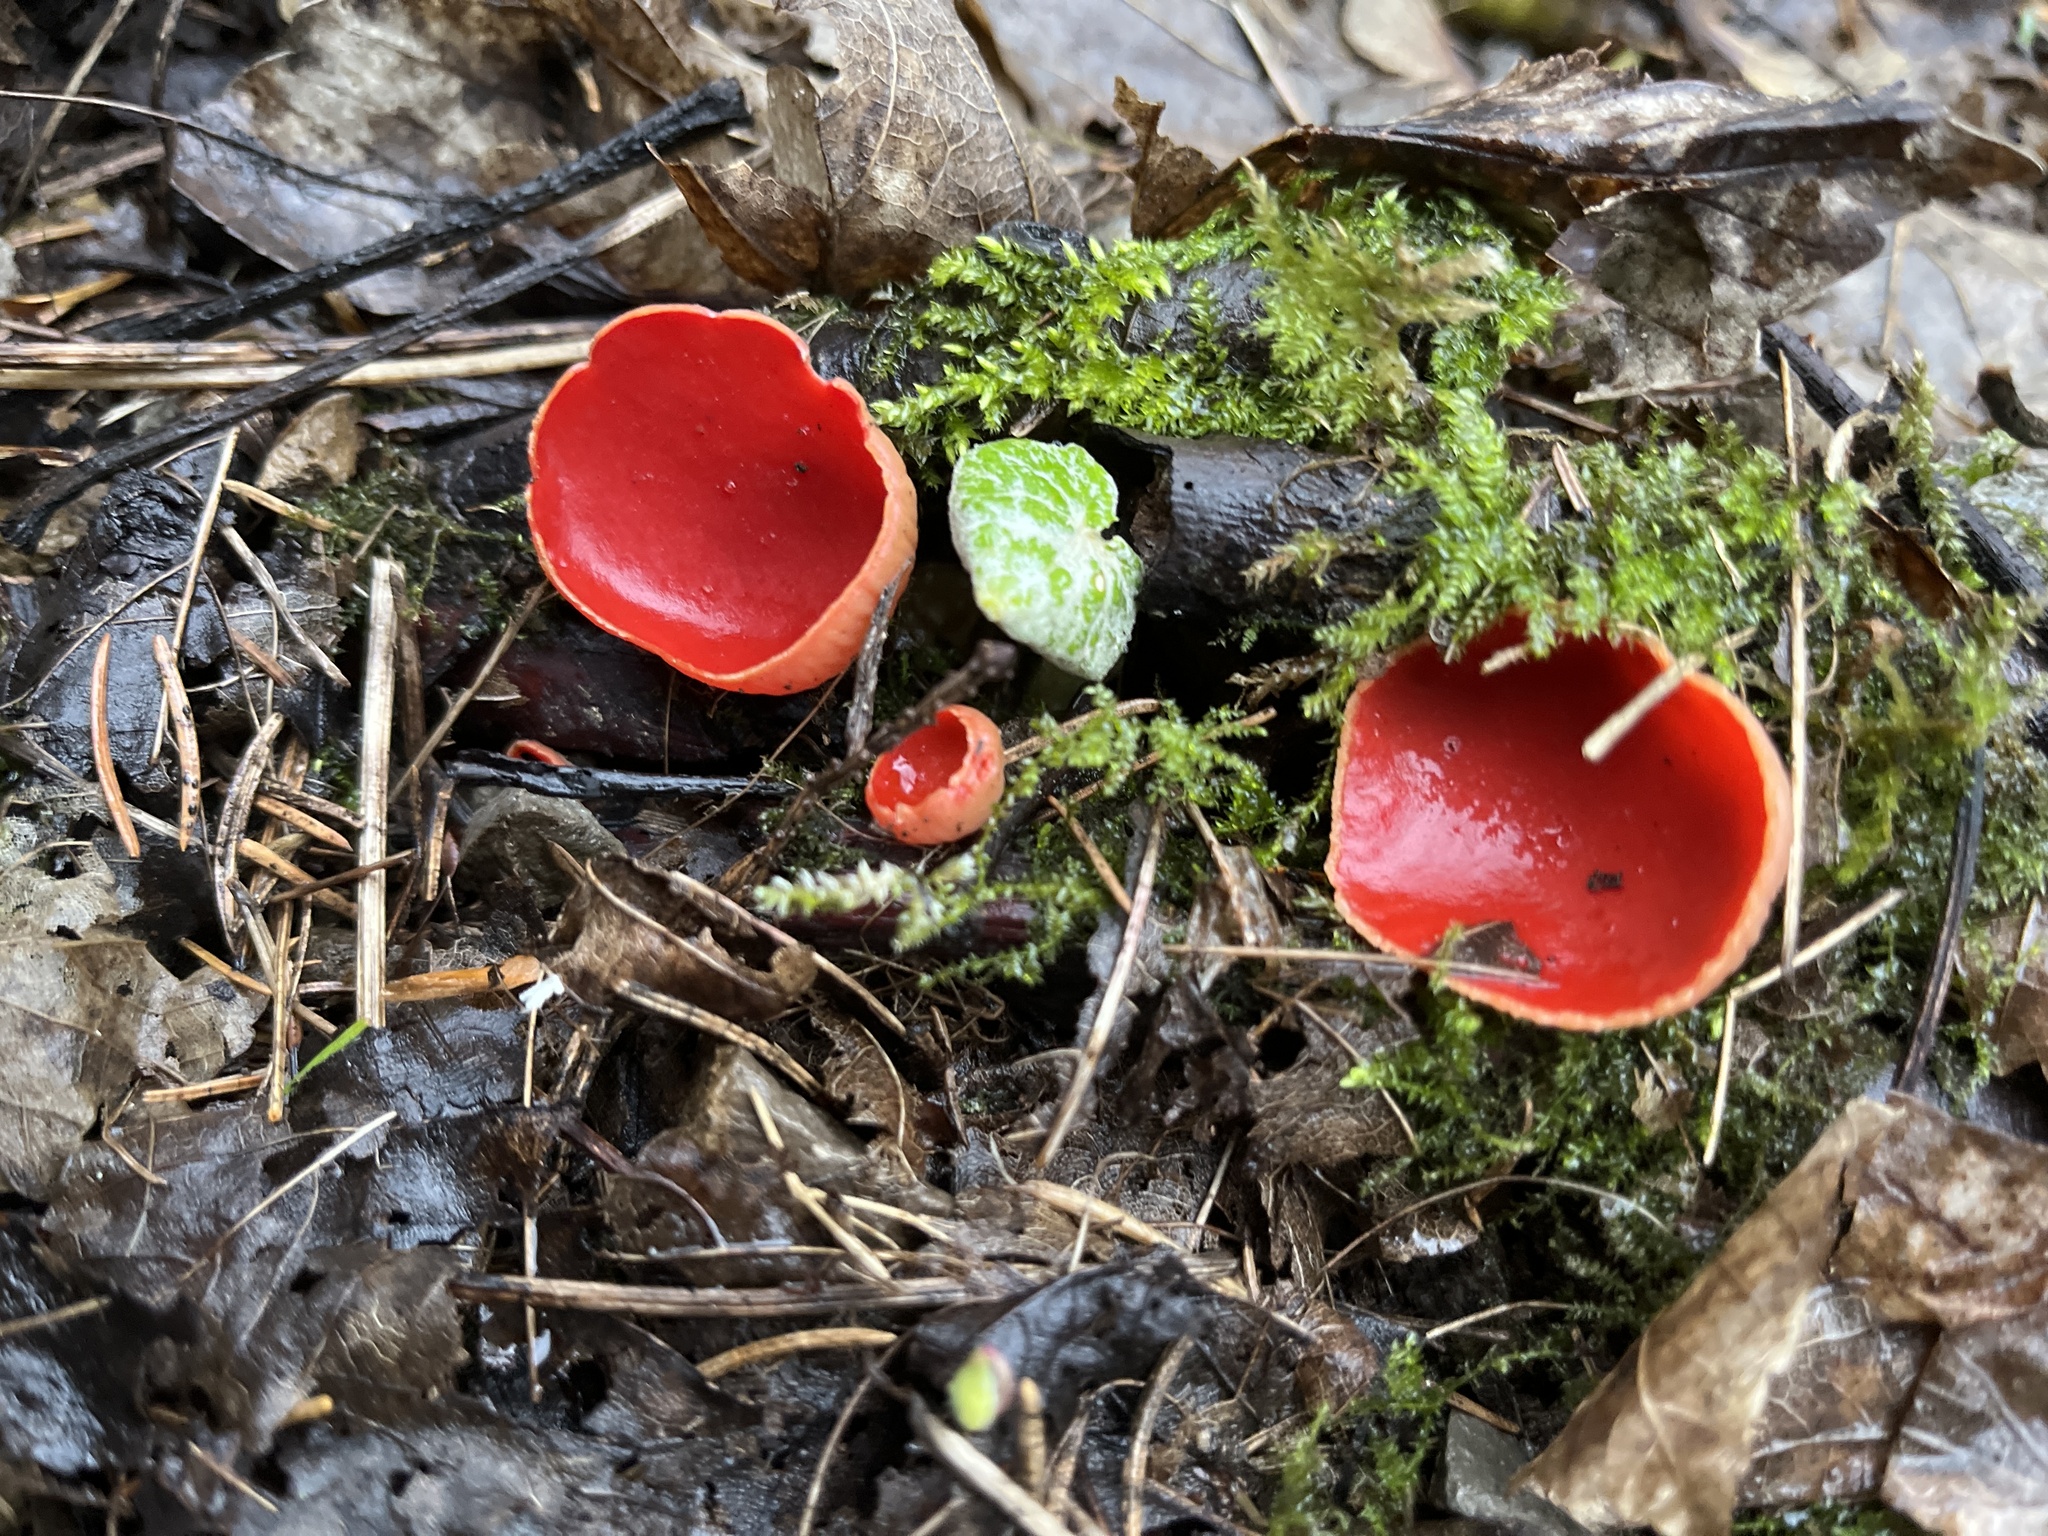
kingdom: Fungi
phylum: Ascomycota
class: Pezizomycetes
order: Pezizales
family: Sarcoscyphaceae
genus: Sarcoscypha
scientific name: Sarcoscypha
